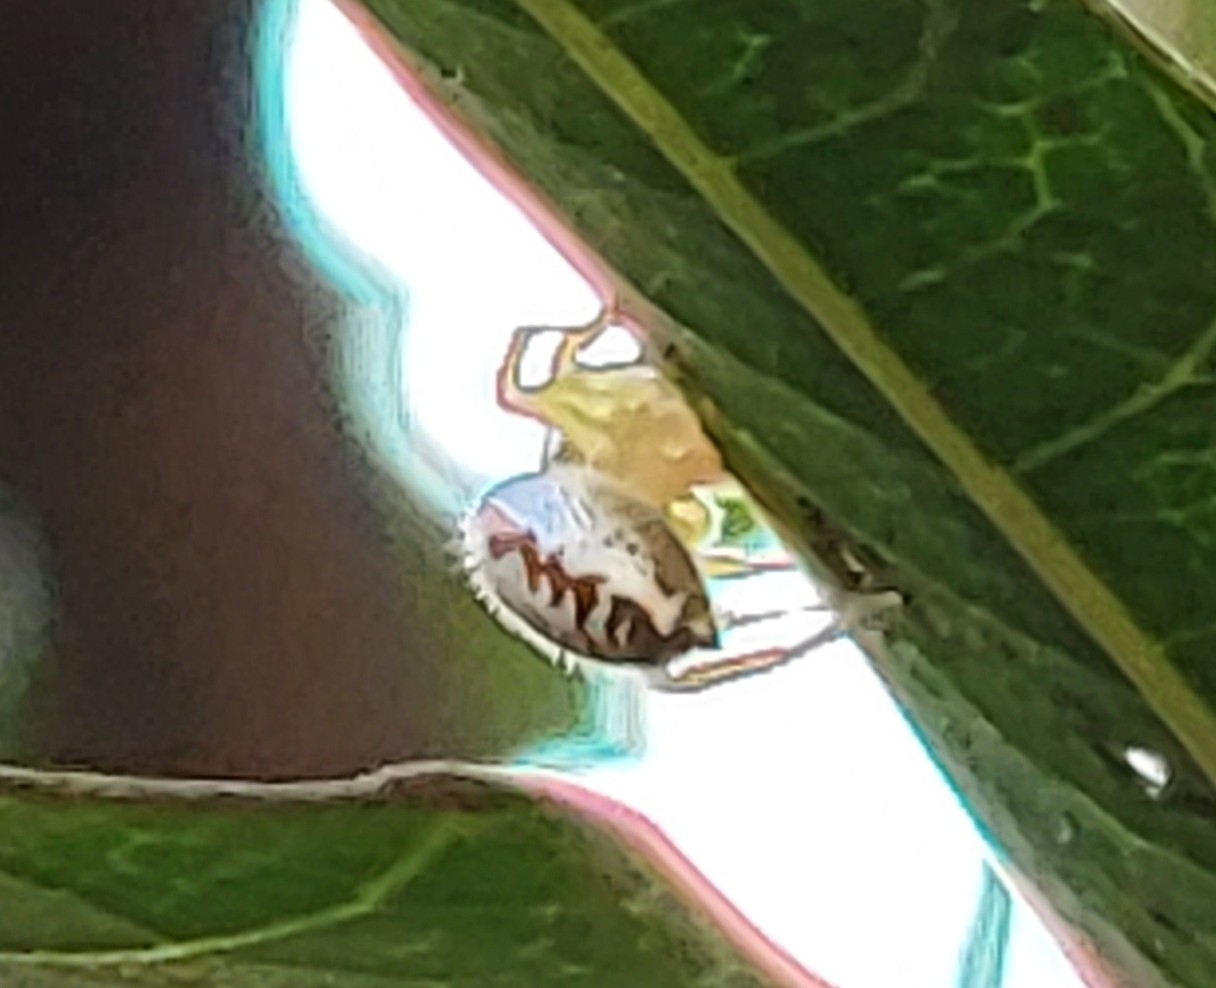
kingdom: Animalia
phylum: Arthropoda
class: Arachnida
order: Araneae
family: Salticidae
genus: Telamonia
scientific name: Telamonia dimidiata
